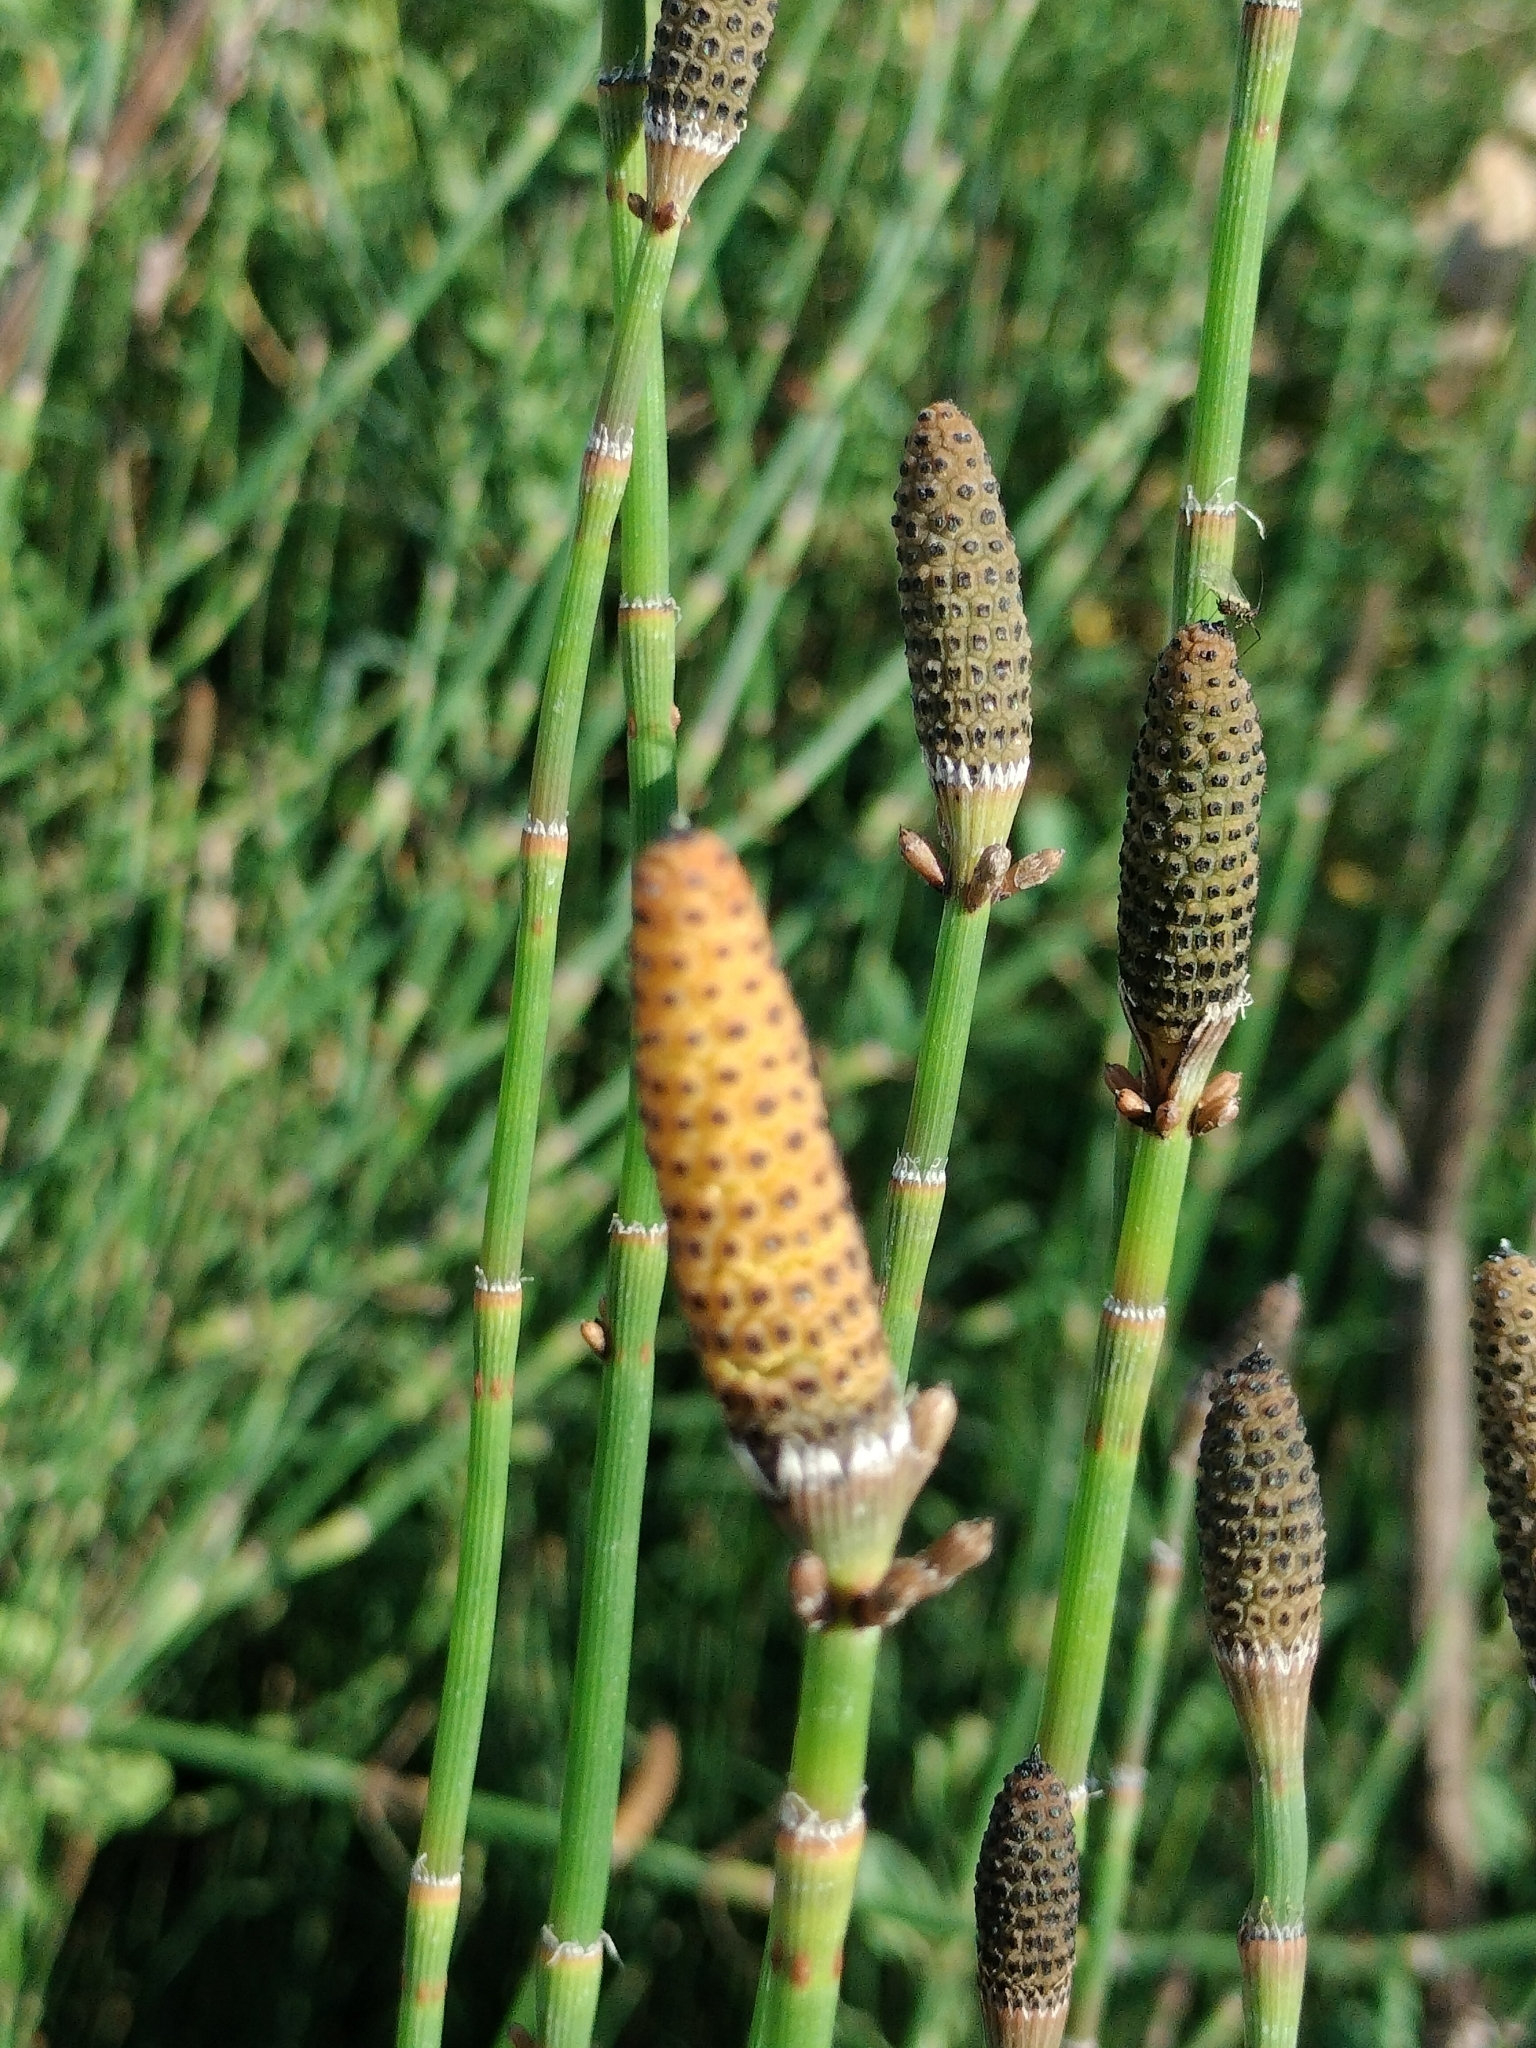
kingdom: Plantae
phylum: Tracheophyta
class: Polypodiopsida
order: Equisetales
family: Equisetaceae
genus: Equisetum
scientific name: Equisetum ramosissimum
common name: Branched horsetail
